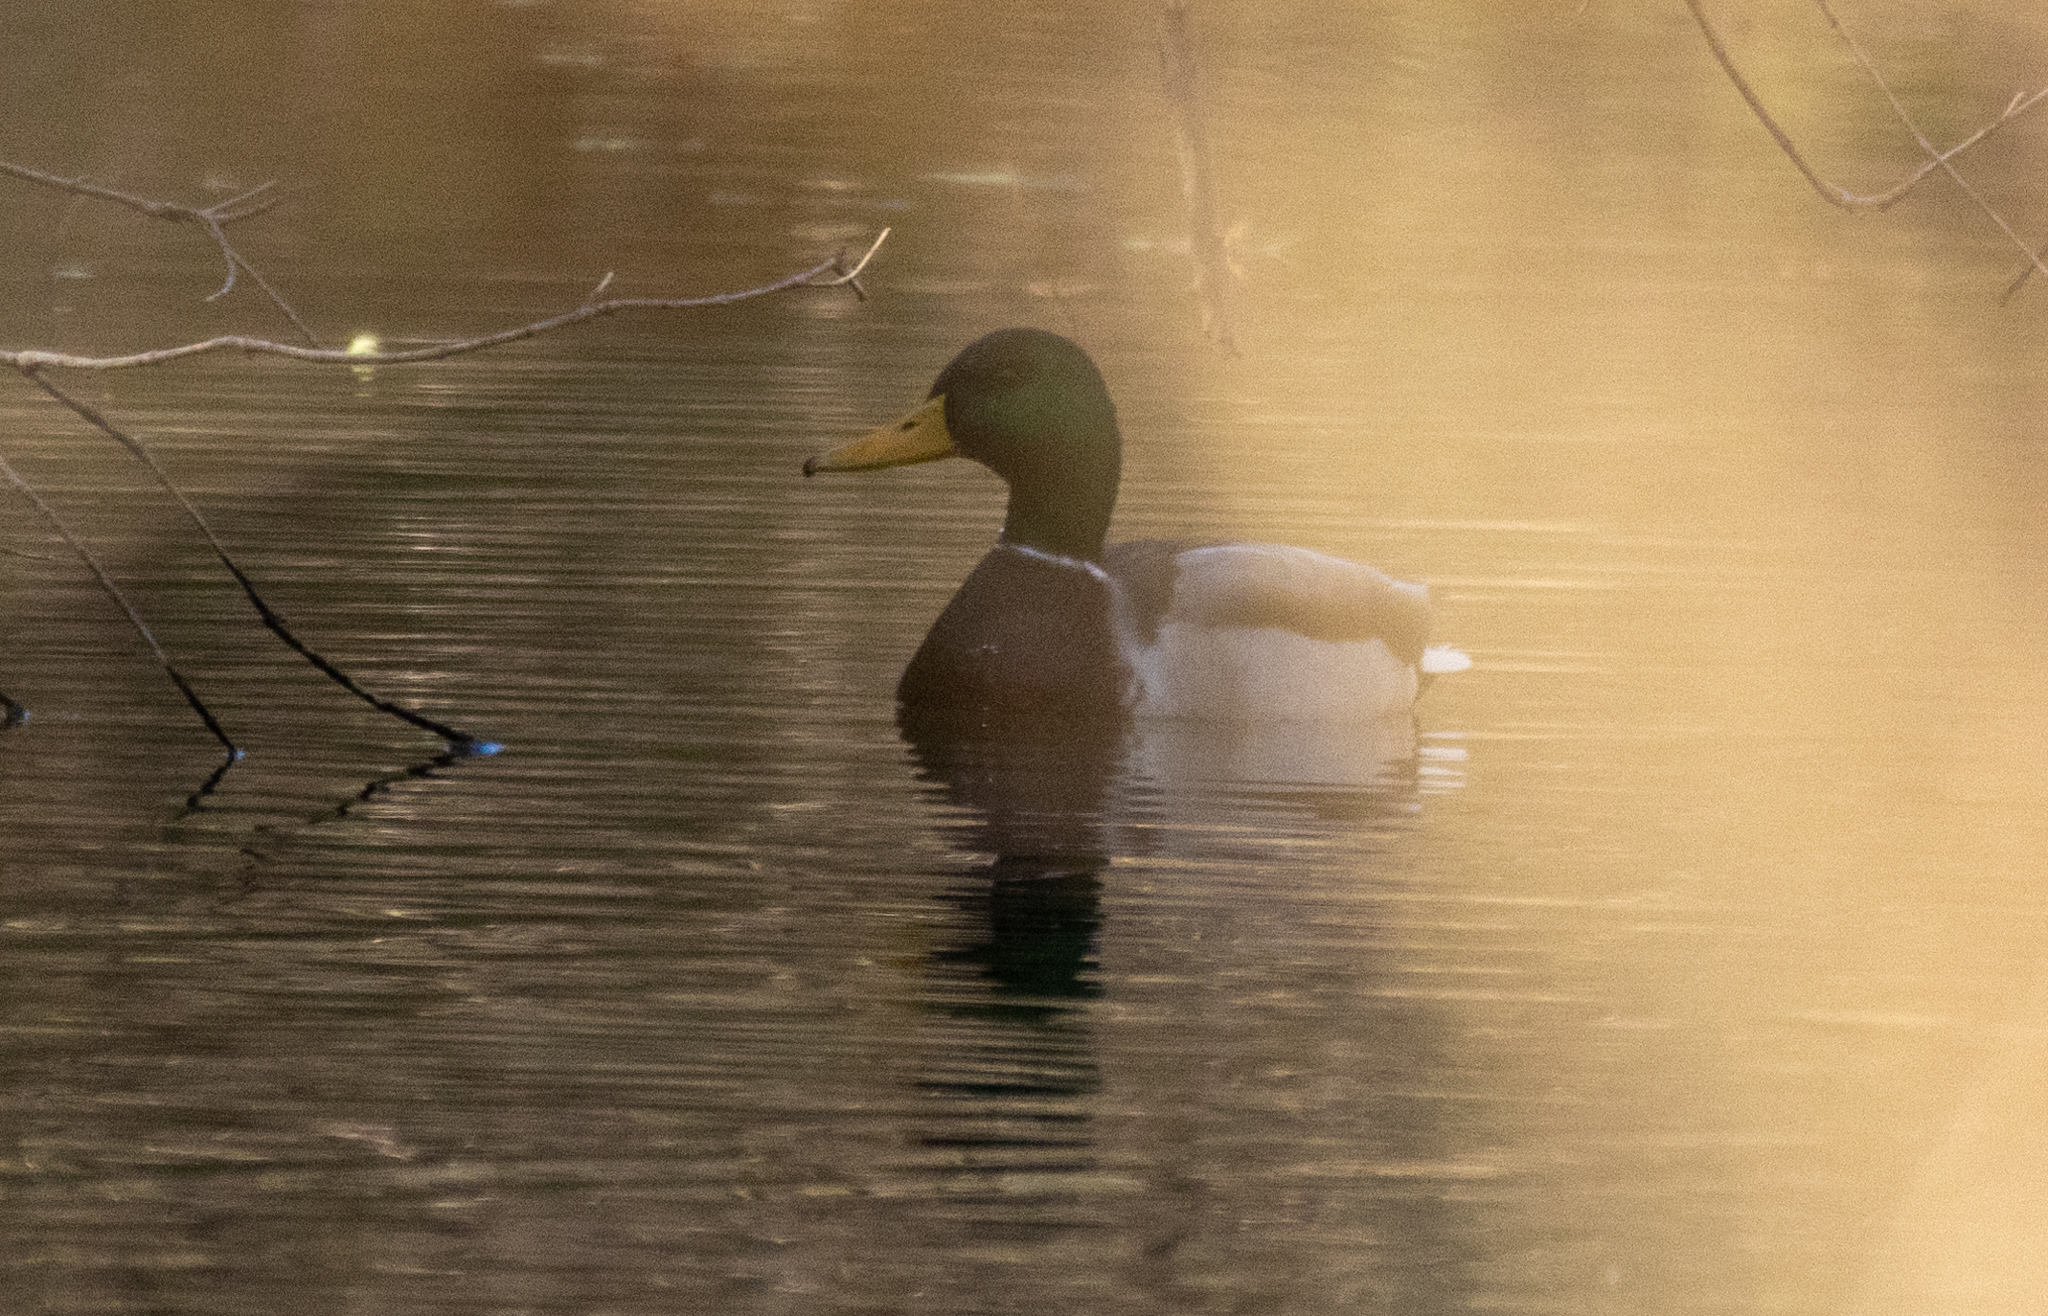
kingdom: Animalia
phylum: Chordata
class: Aves
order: Anseriformes
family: Anatidae
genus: Anas
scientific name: Anas platyrhynchos
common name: Mallard
